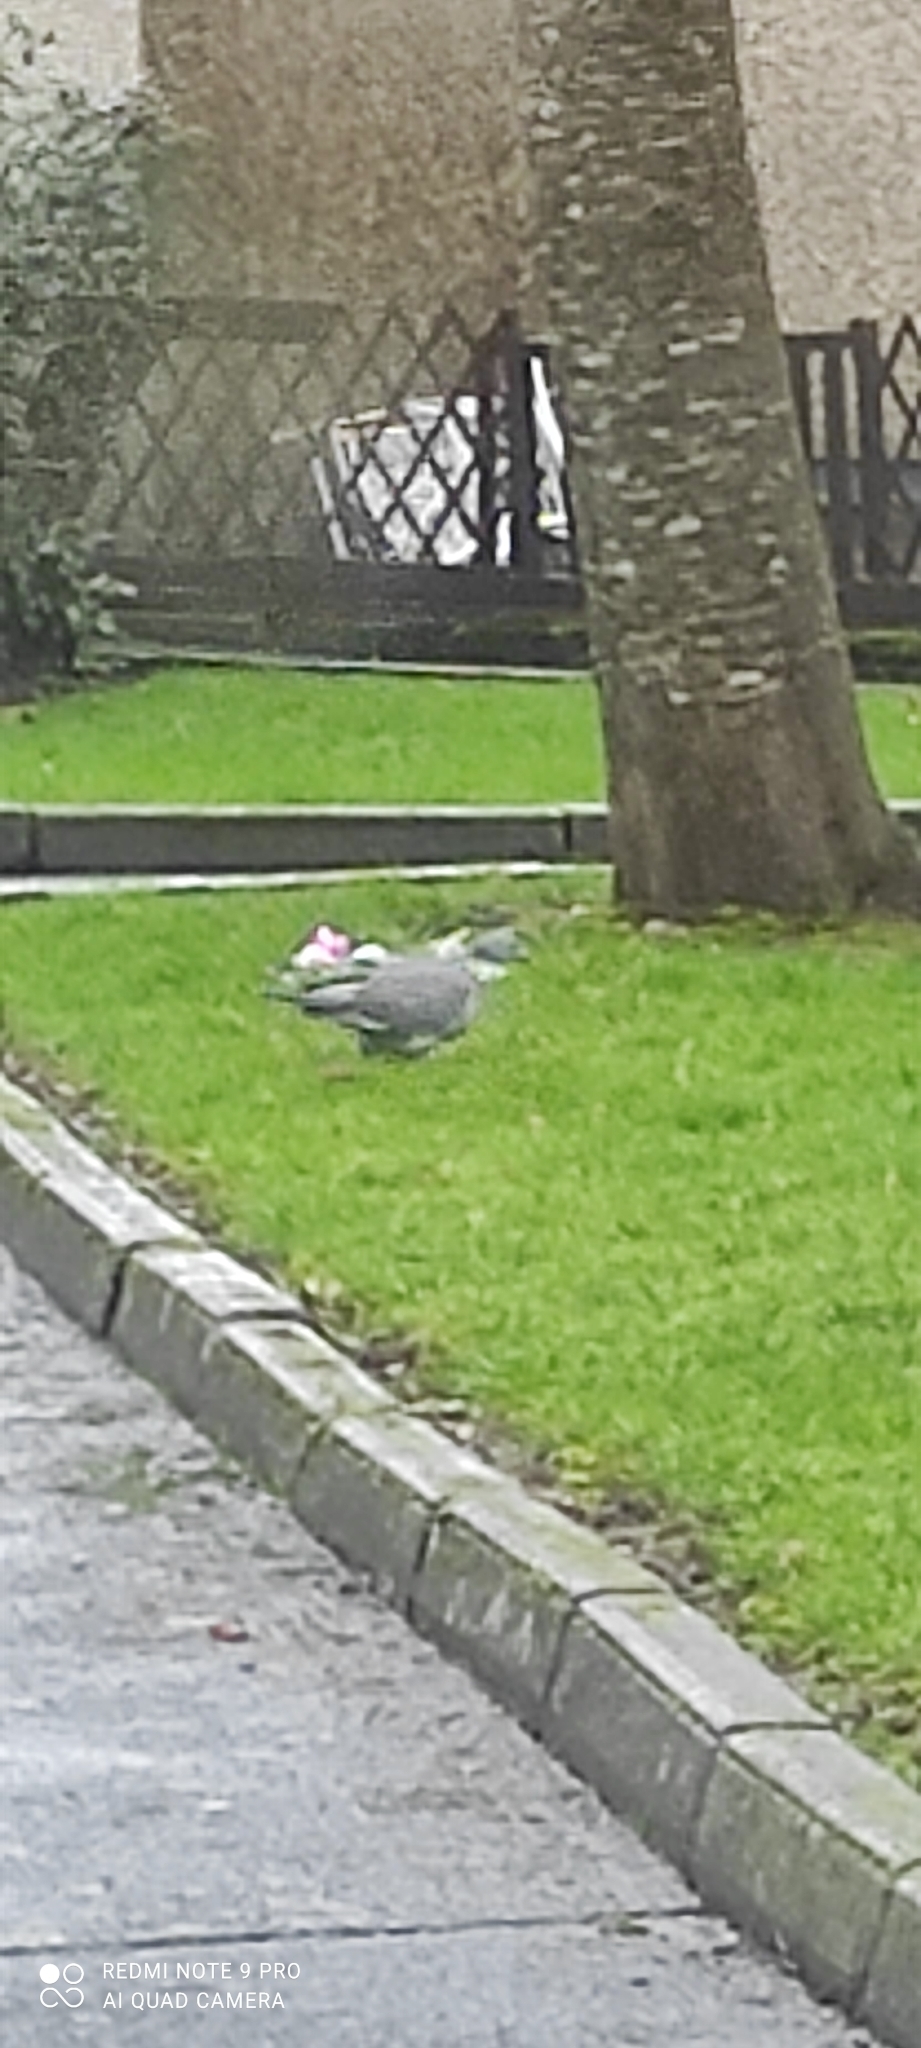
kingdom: Animalia
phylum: Chordata
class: Aves
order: Columbiformes
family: Columbidae
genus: Columba
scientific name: Columba palumbus
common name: Common wood pigeon
